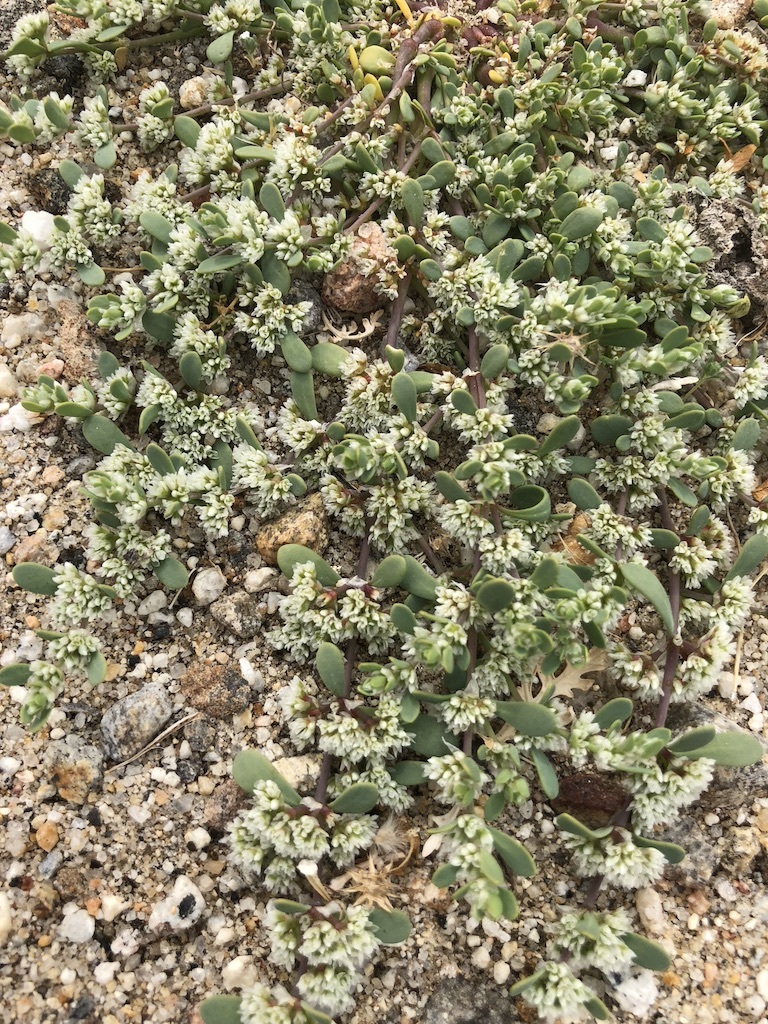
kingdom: Plantae
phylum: Tracheophyta
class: Magnoliopsida
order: Caryophyllales
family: Caryophyllaceae
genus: Achyronychia
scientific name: Achyronychia cooperi
